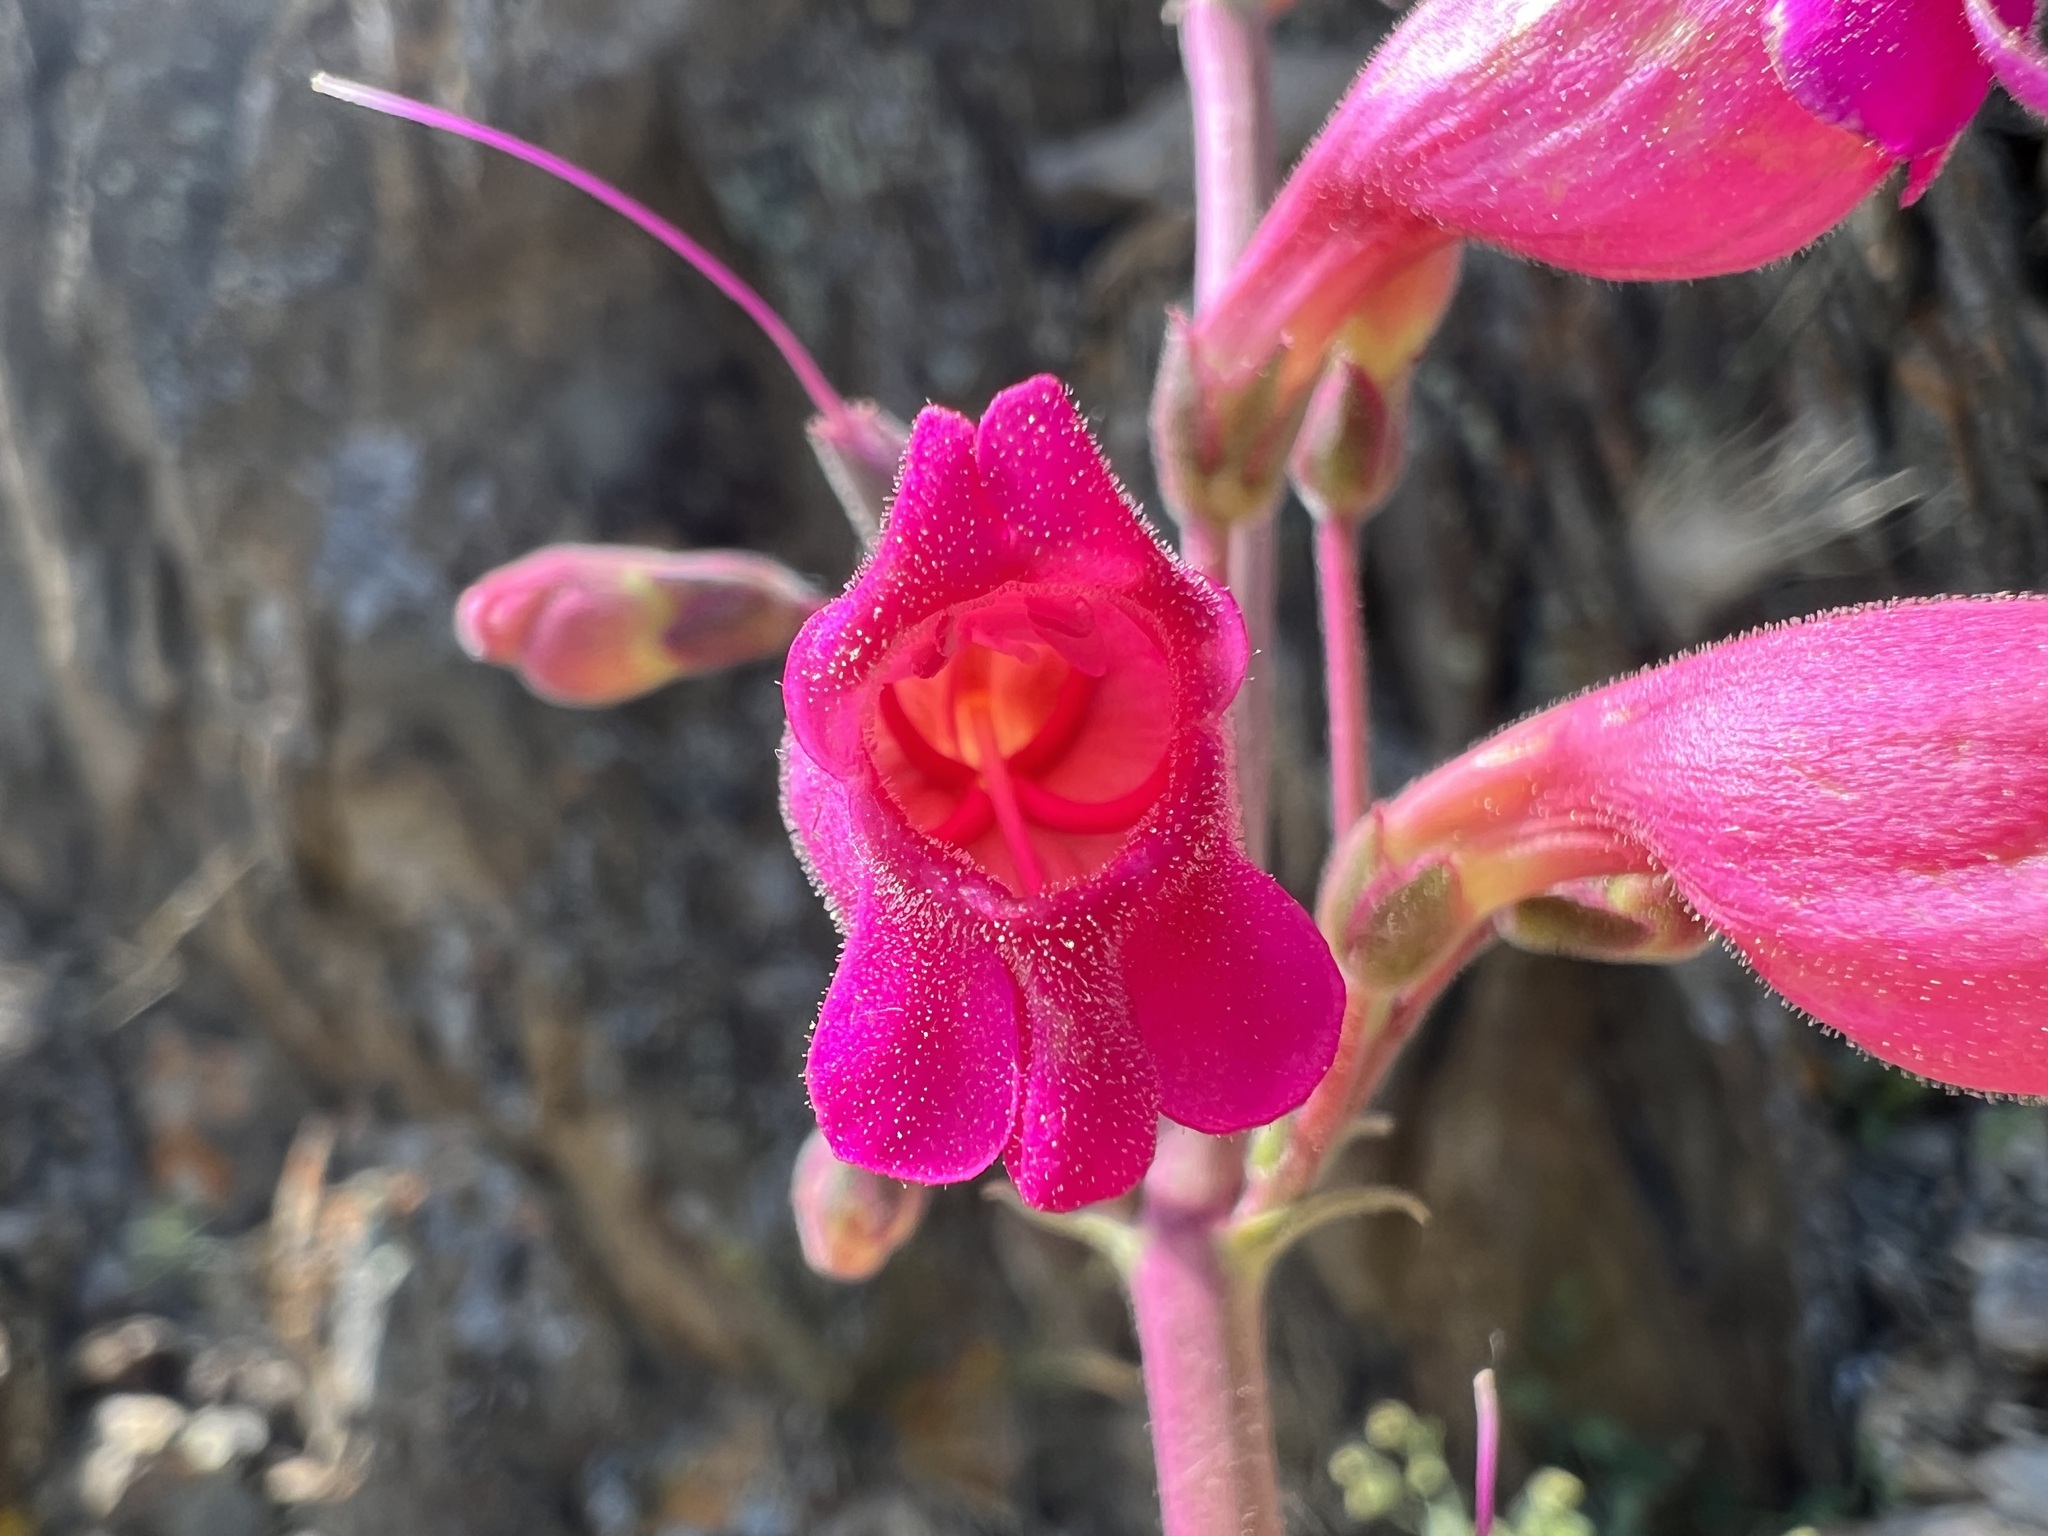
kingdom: Plantae
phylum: Tracheophyta
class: Magnoliopsida
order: Lamiales
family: Plantaginaceae
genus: Penstemon
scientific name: Penstemon floridus
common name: Panamint penstemon
